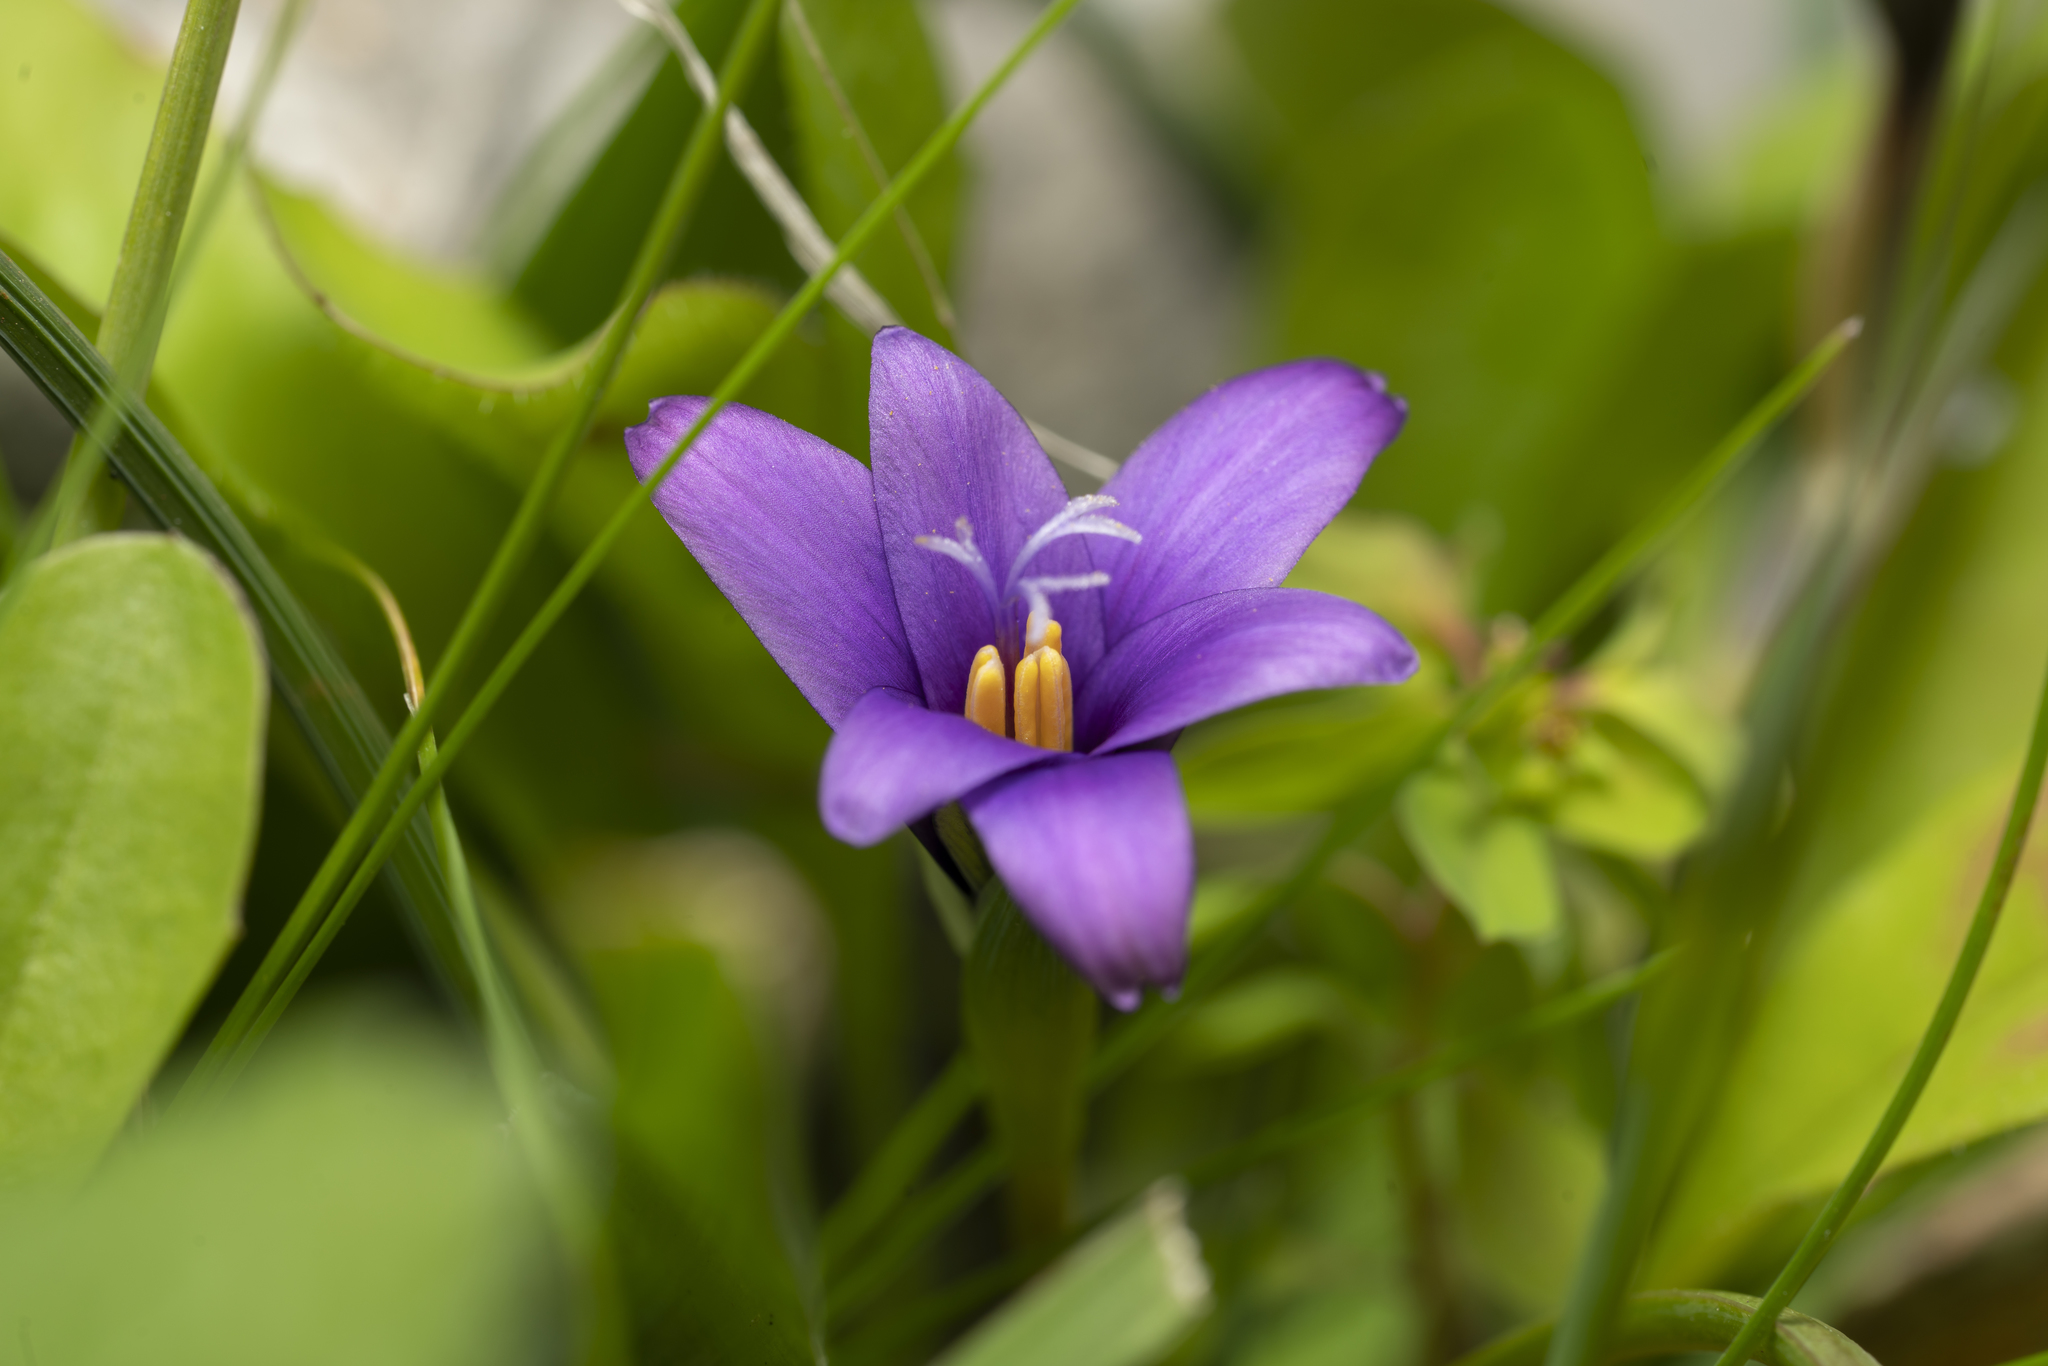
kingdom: Plantae
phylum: Tracheophyta
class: Liliopsida
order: Asparagales
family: Iridaceae
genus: Romulea
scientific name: Romulea tempskyana
